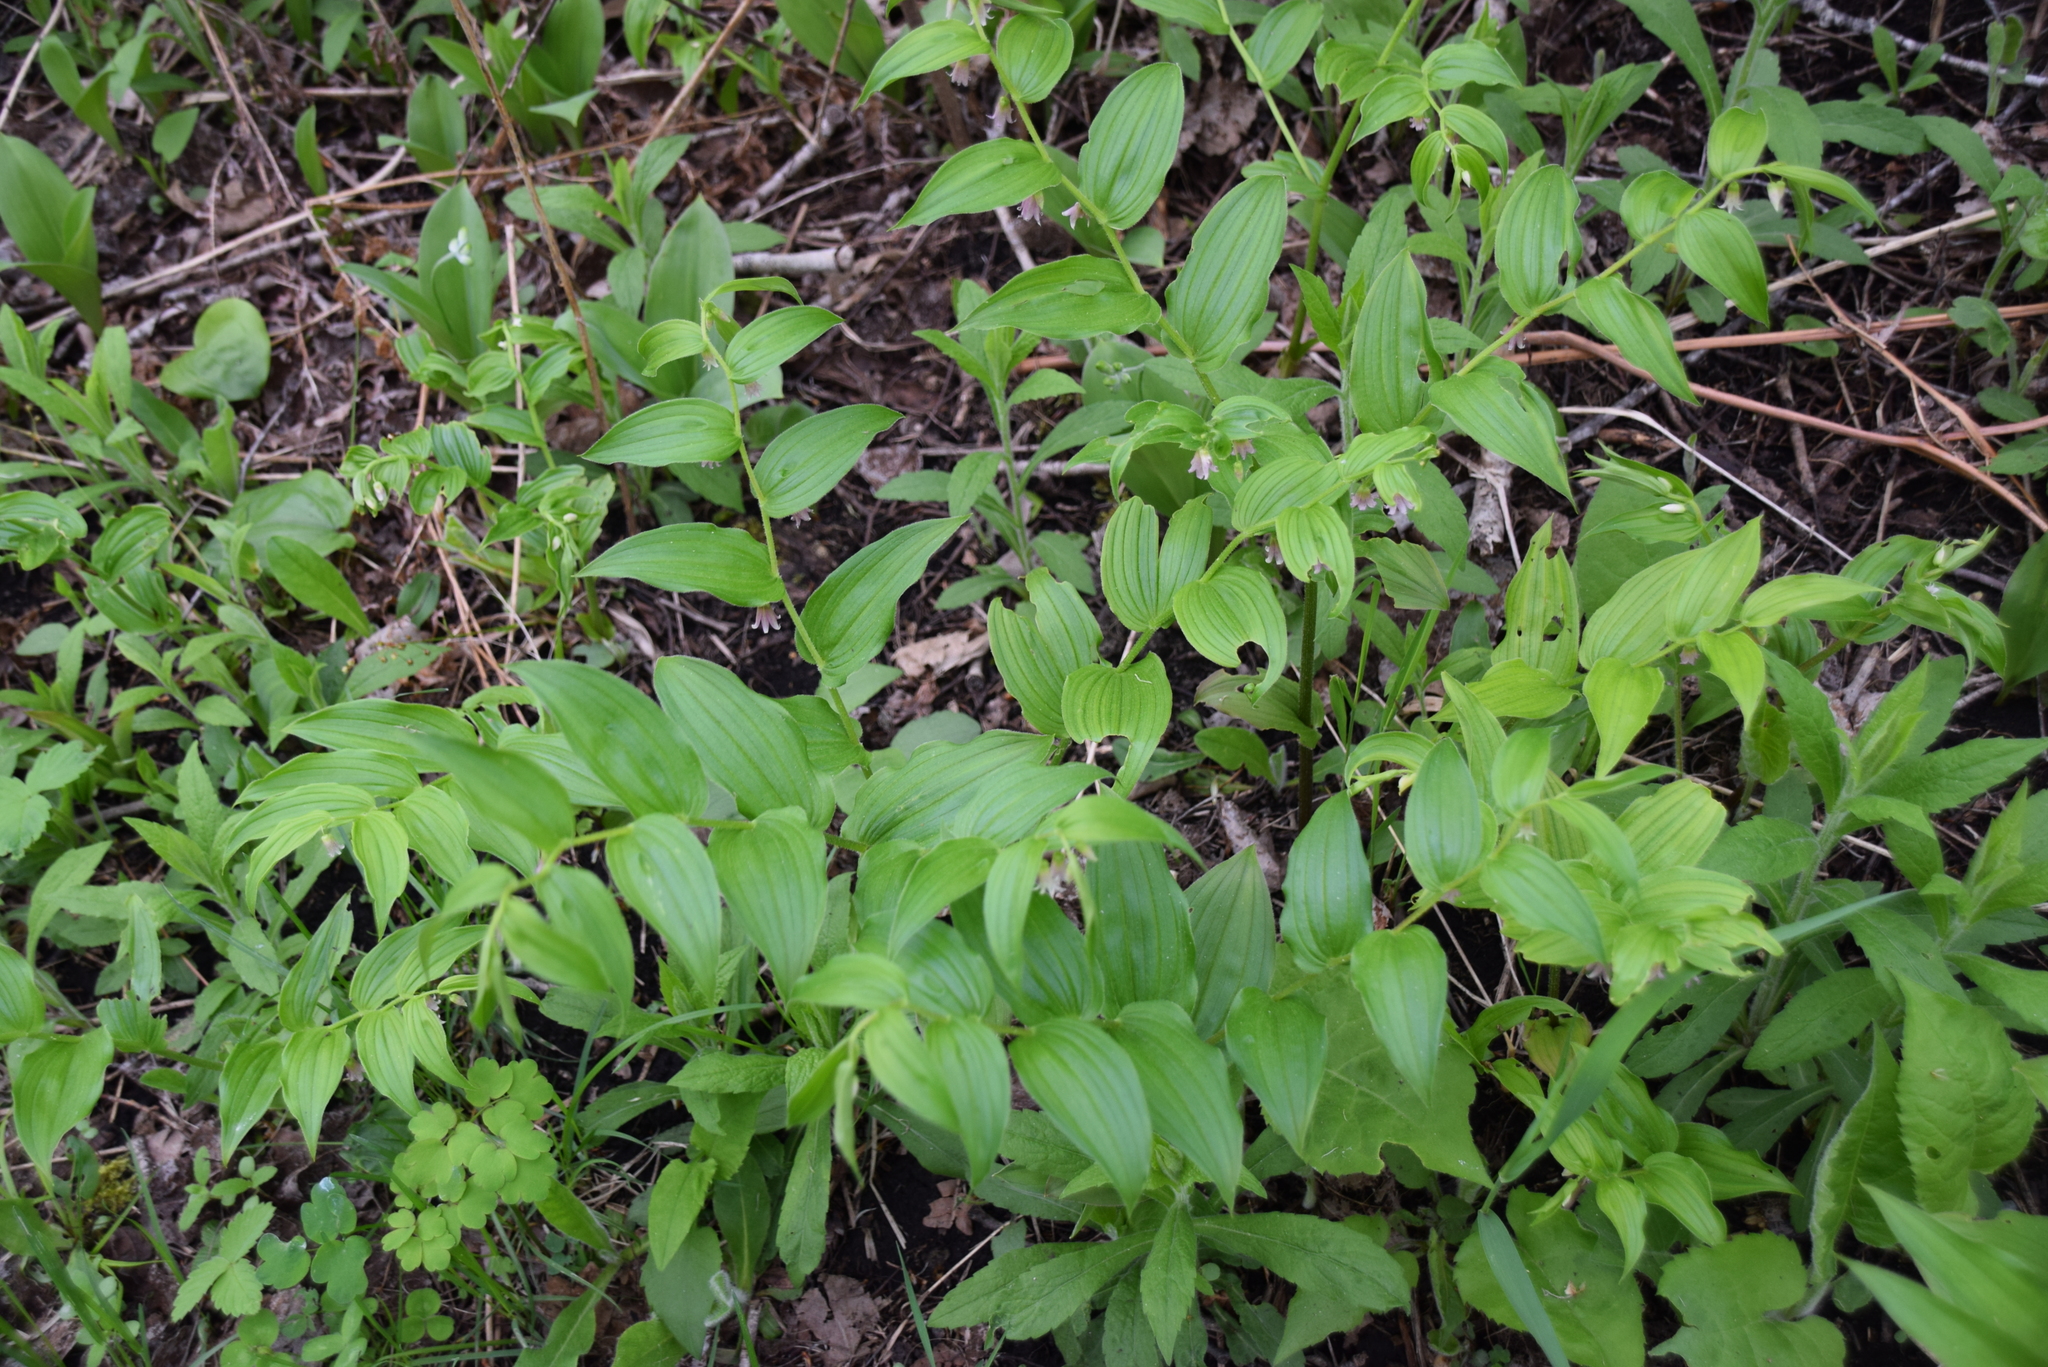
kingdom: Plantae
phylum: Tracheophyta
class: Liliopsida
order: Liliales
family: Liliaceae
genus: Streptopus
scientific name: Streptopus lanceolatus
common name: Rose mandarin
